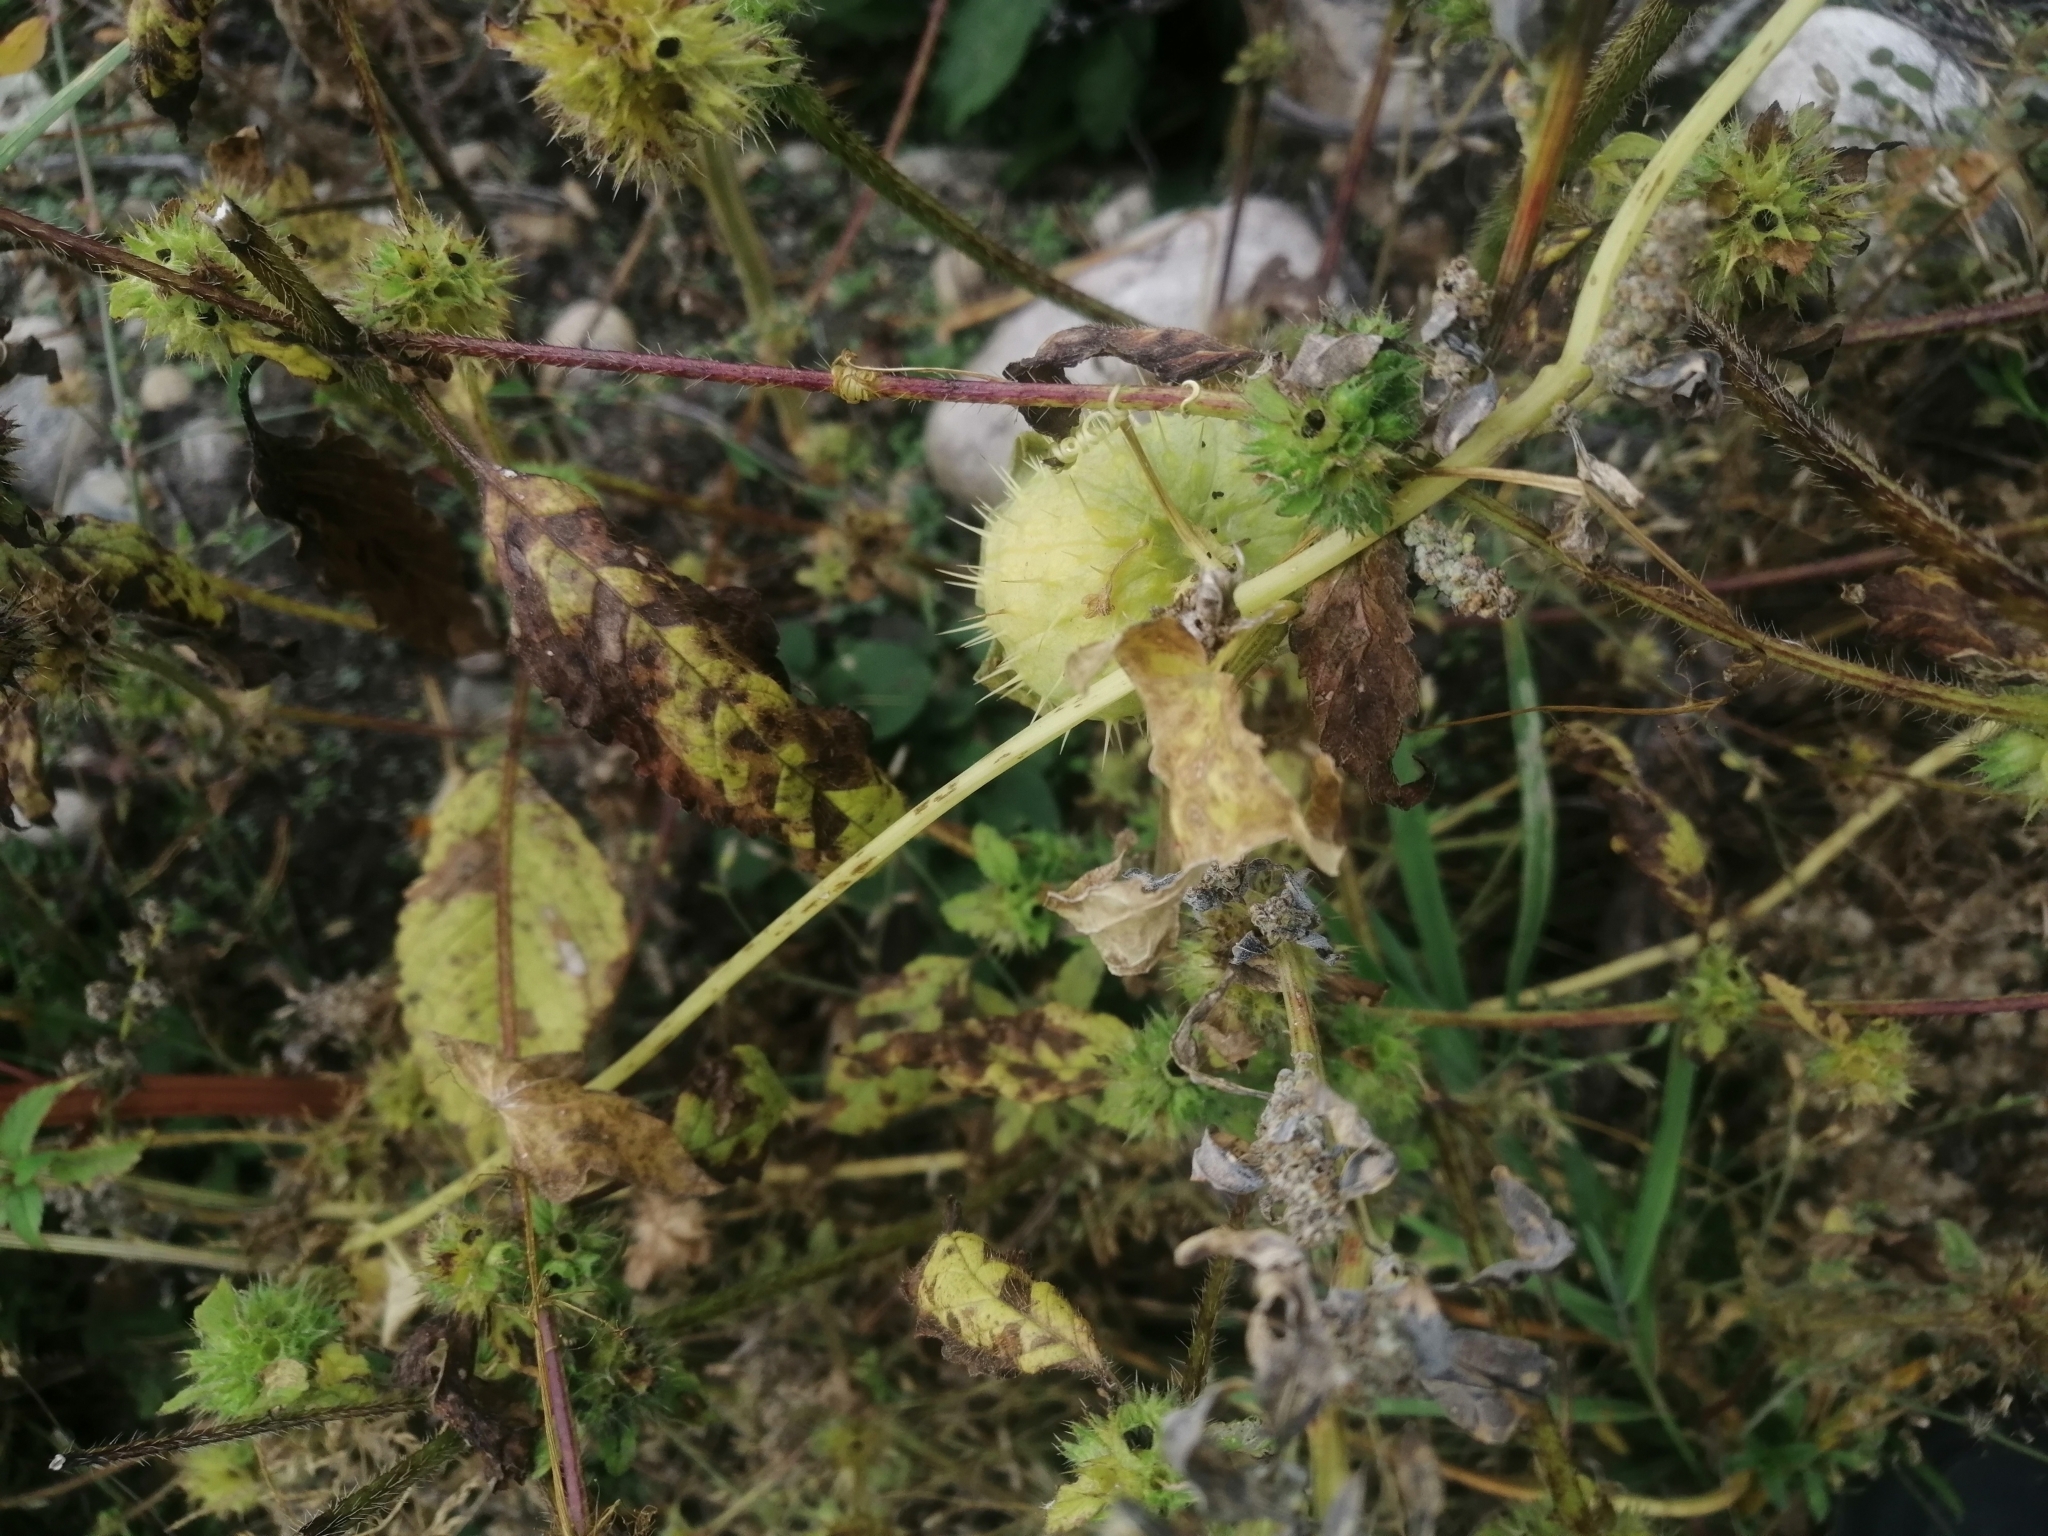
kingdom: Plantae
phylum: Tracheophyta
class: Magnoliopsida
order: Cucurbitales
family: Cucurbitaceae
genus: Echinocystis
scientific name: Echinocystis lobata
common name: Wild cucumber
